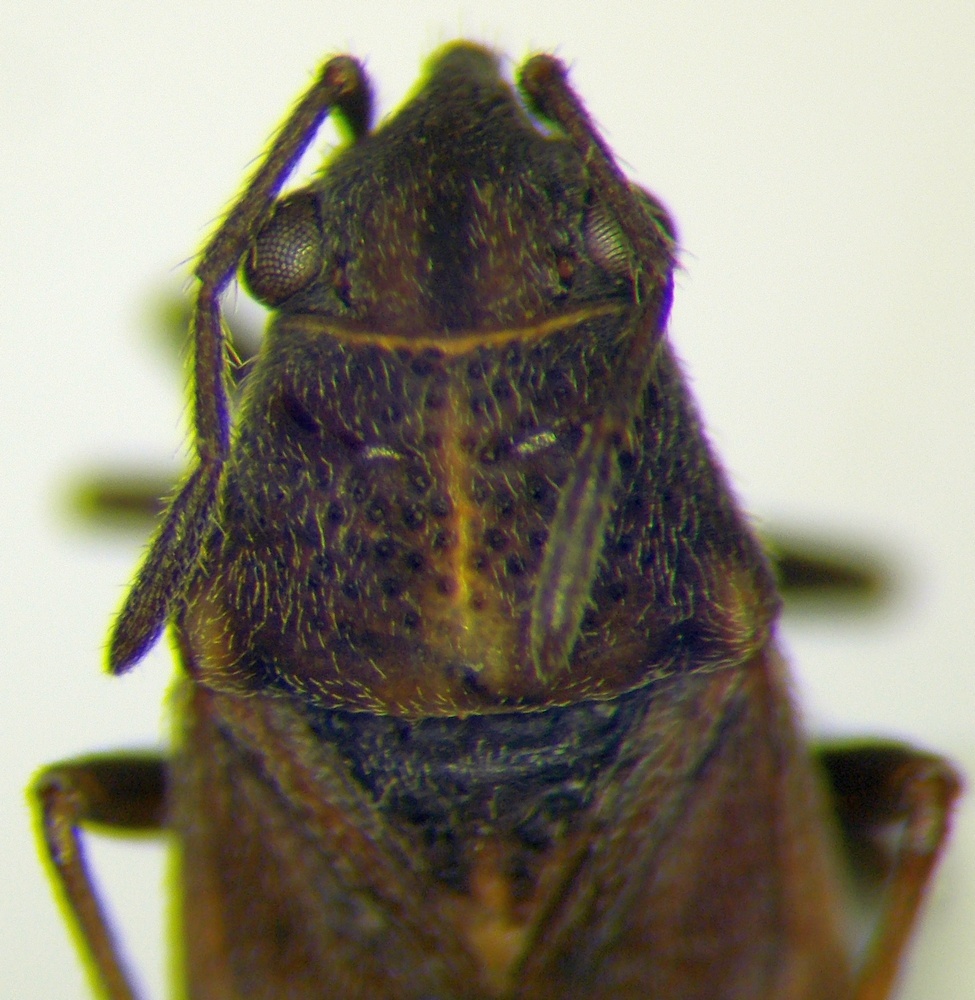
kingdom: Animalia
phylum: Arthropoda
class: Insecta
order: Hemiptera
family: Lygaeidae
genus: Lygaeosoma
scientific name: Lygaeosoma sardeum
